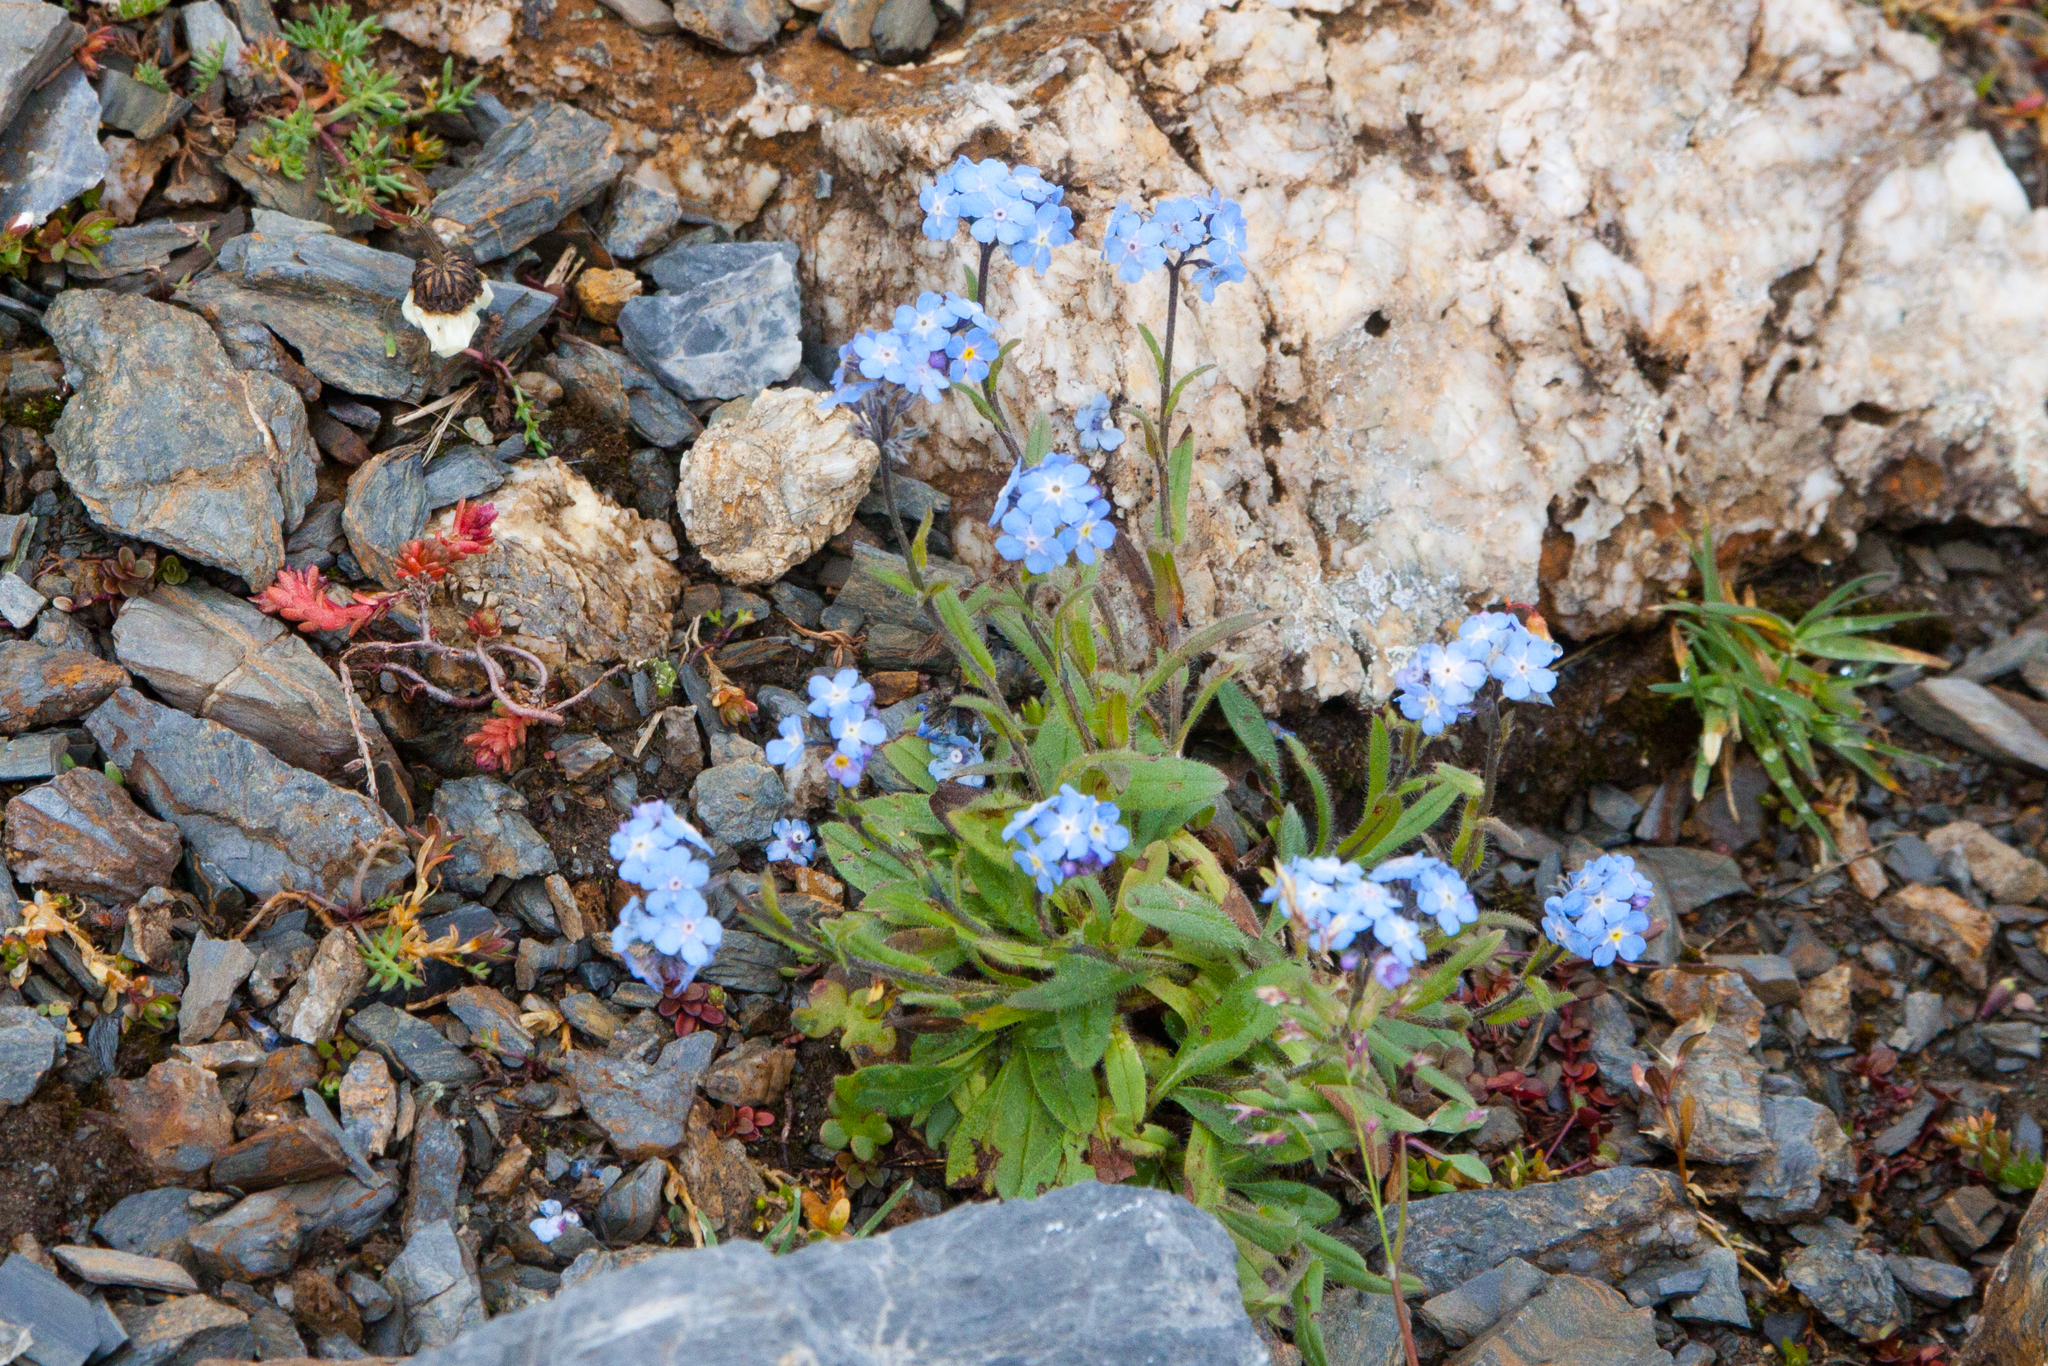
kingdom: Plantae
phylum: Tracheophyta
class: Magnoliopsida
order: Boraginales
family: Boraginaceae
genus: Myosotis
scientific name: Myosotis alpestris
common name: Alpine forget-me-not
